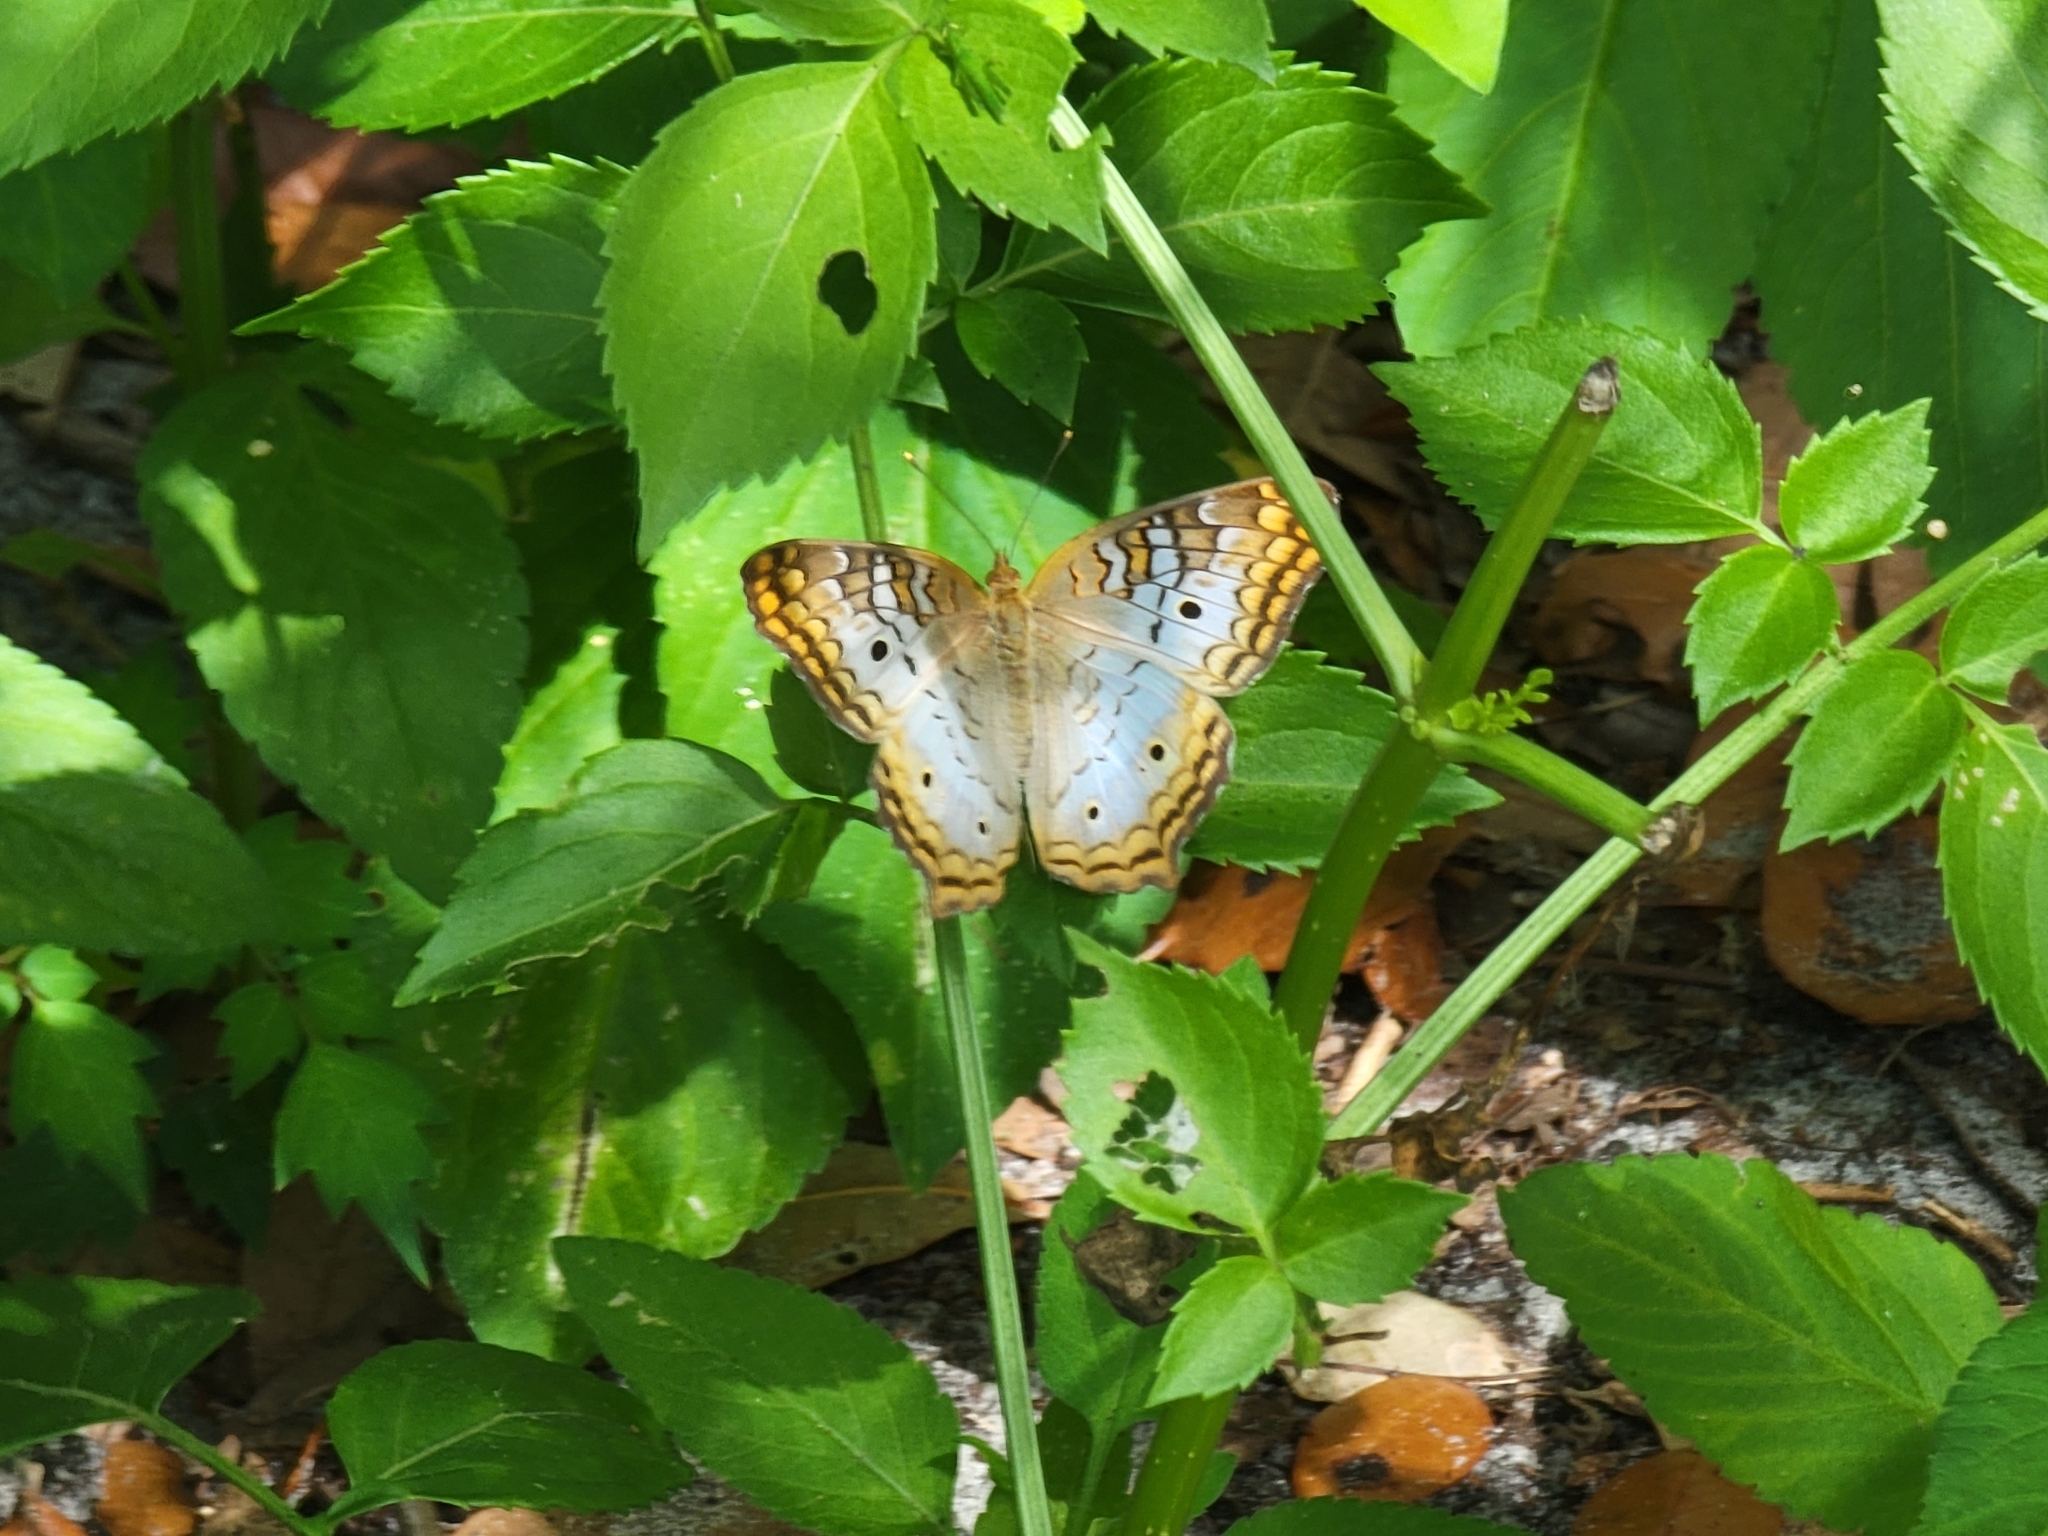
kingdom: Animalia
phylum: Arthropoda
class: Insecta
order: Lepidoptera
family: Nymphalidae
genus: Anartia
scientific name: Anartia jatrophae
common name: White peacock
